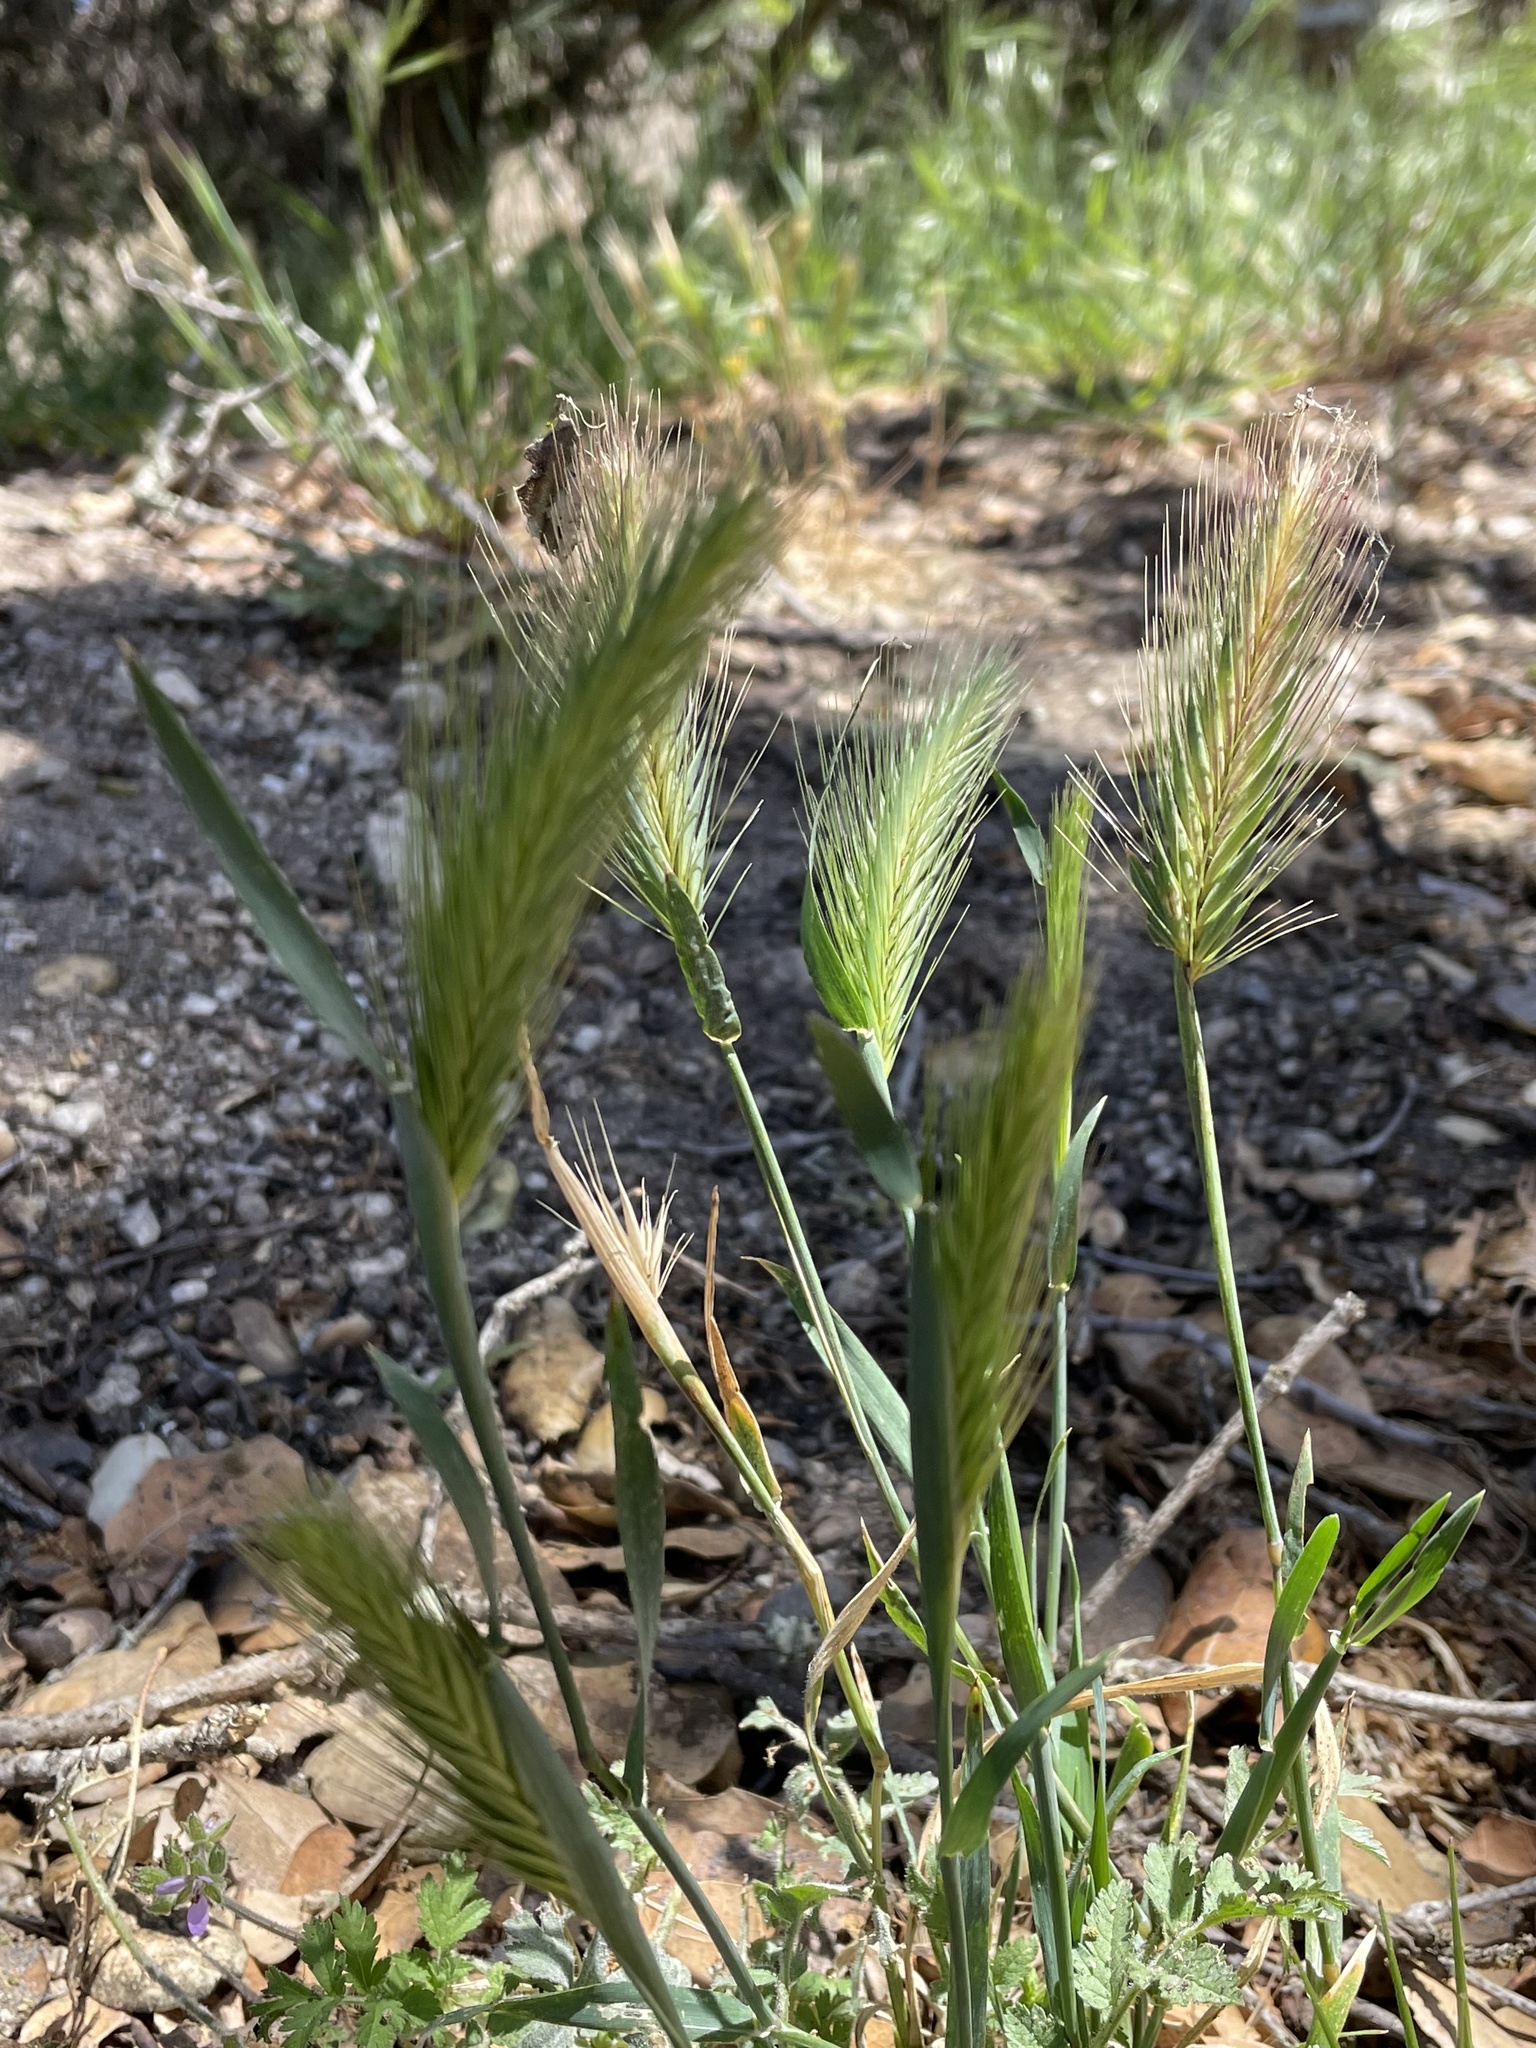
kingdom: Plantae
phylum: Tracheophyta
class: Liliopsida
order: Poales
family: Poaceae
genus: Hordeum
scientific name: Hordeum murinum
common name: Wall barley
